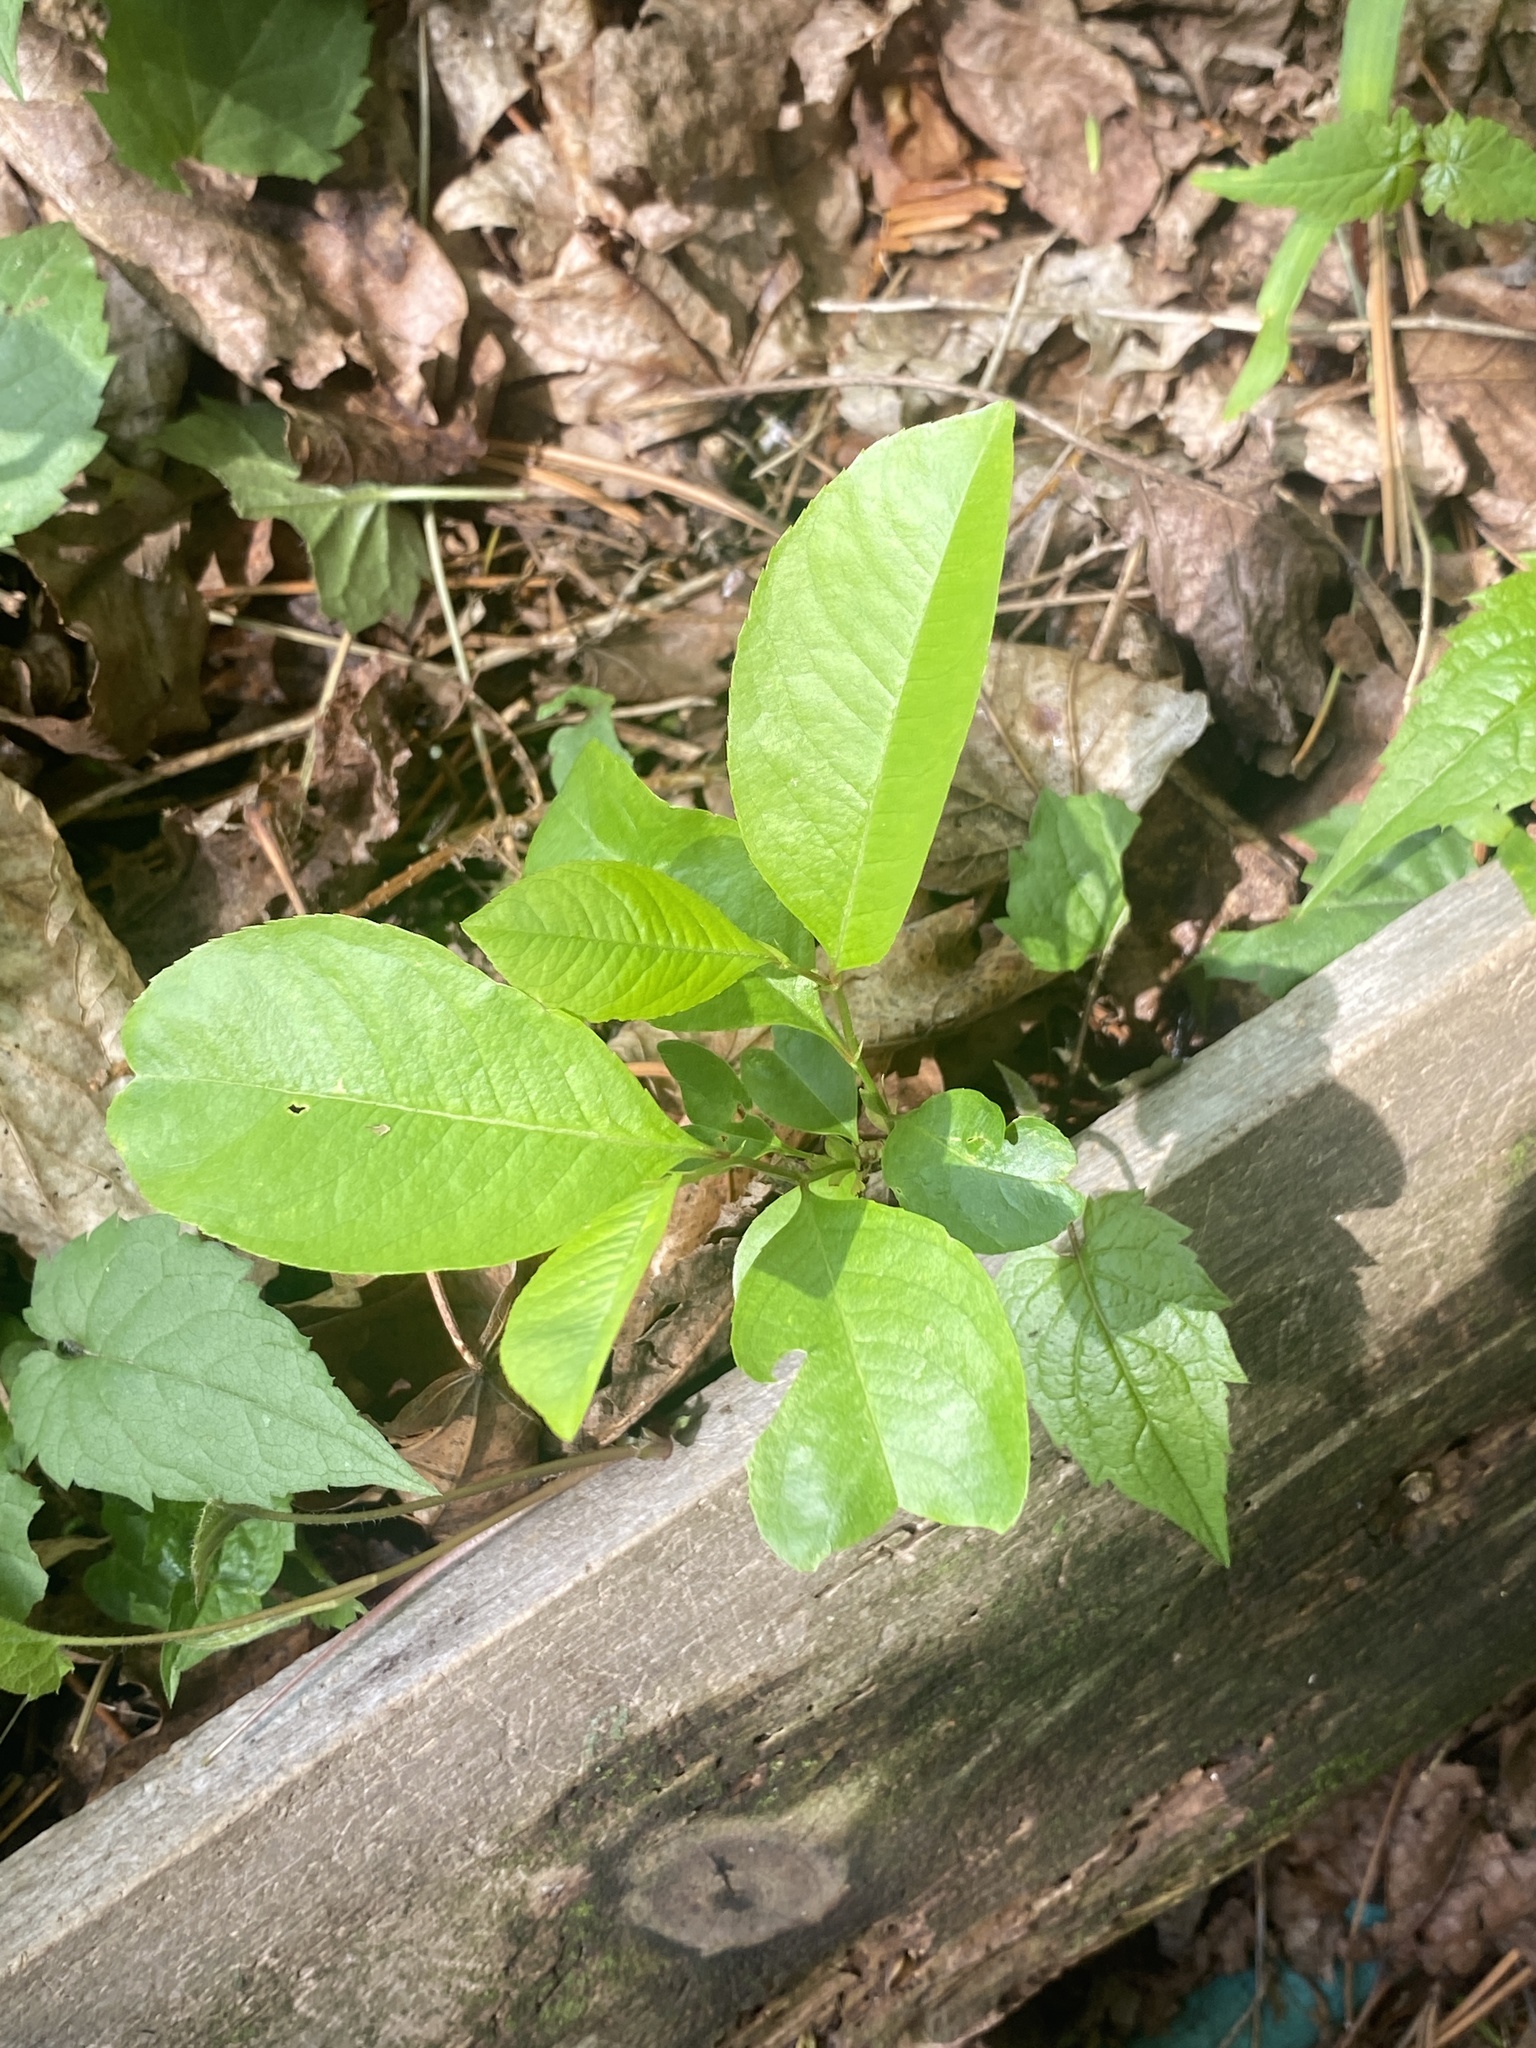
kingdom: Plantae
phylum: Tracheophyta
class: Magnoliopsida
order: Rosales
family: Rosaceae
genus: Prunus
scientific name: Prunus serotina
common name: Black cherry
